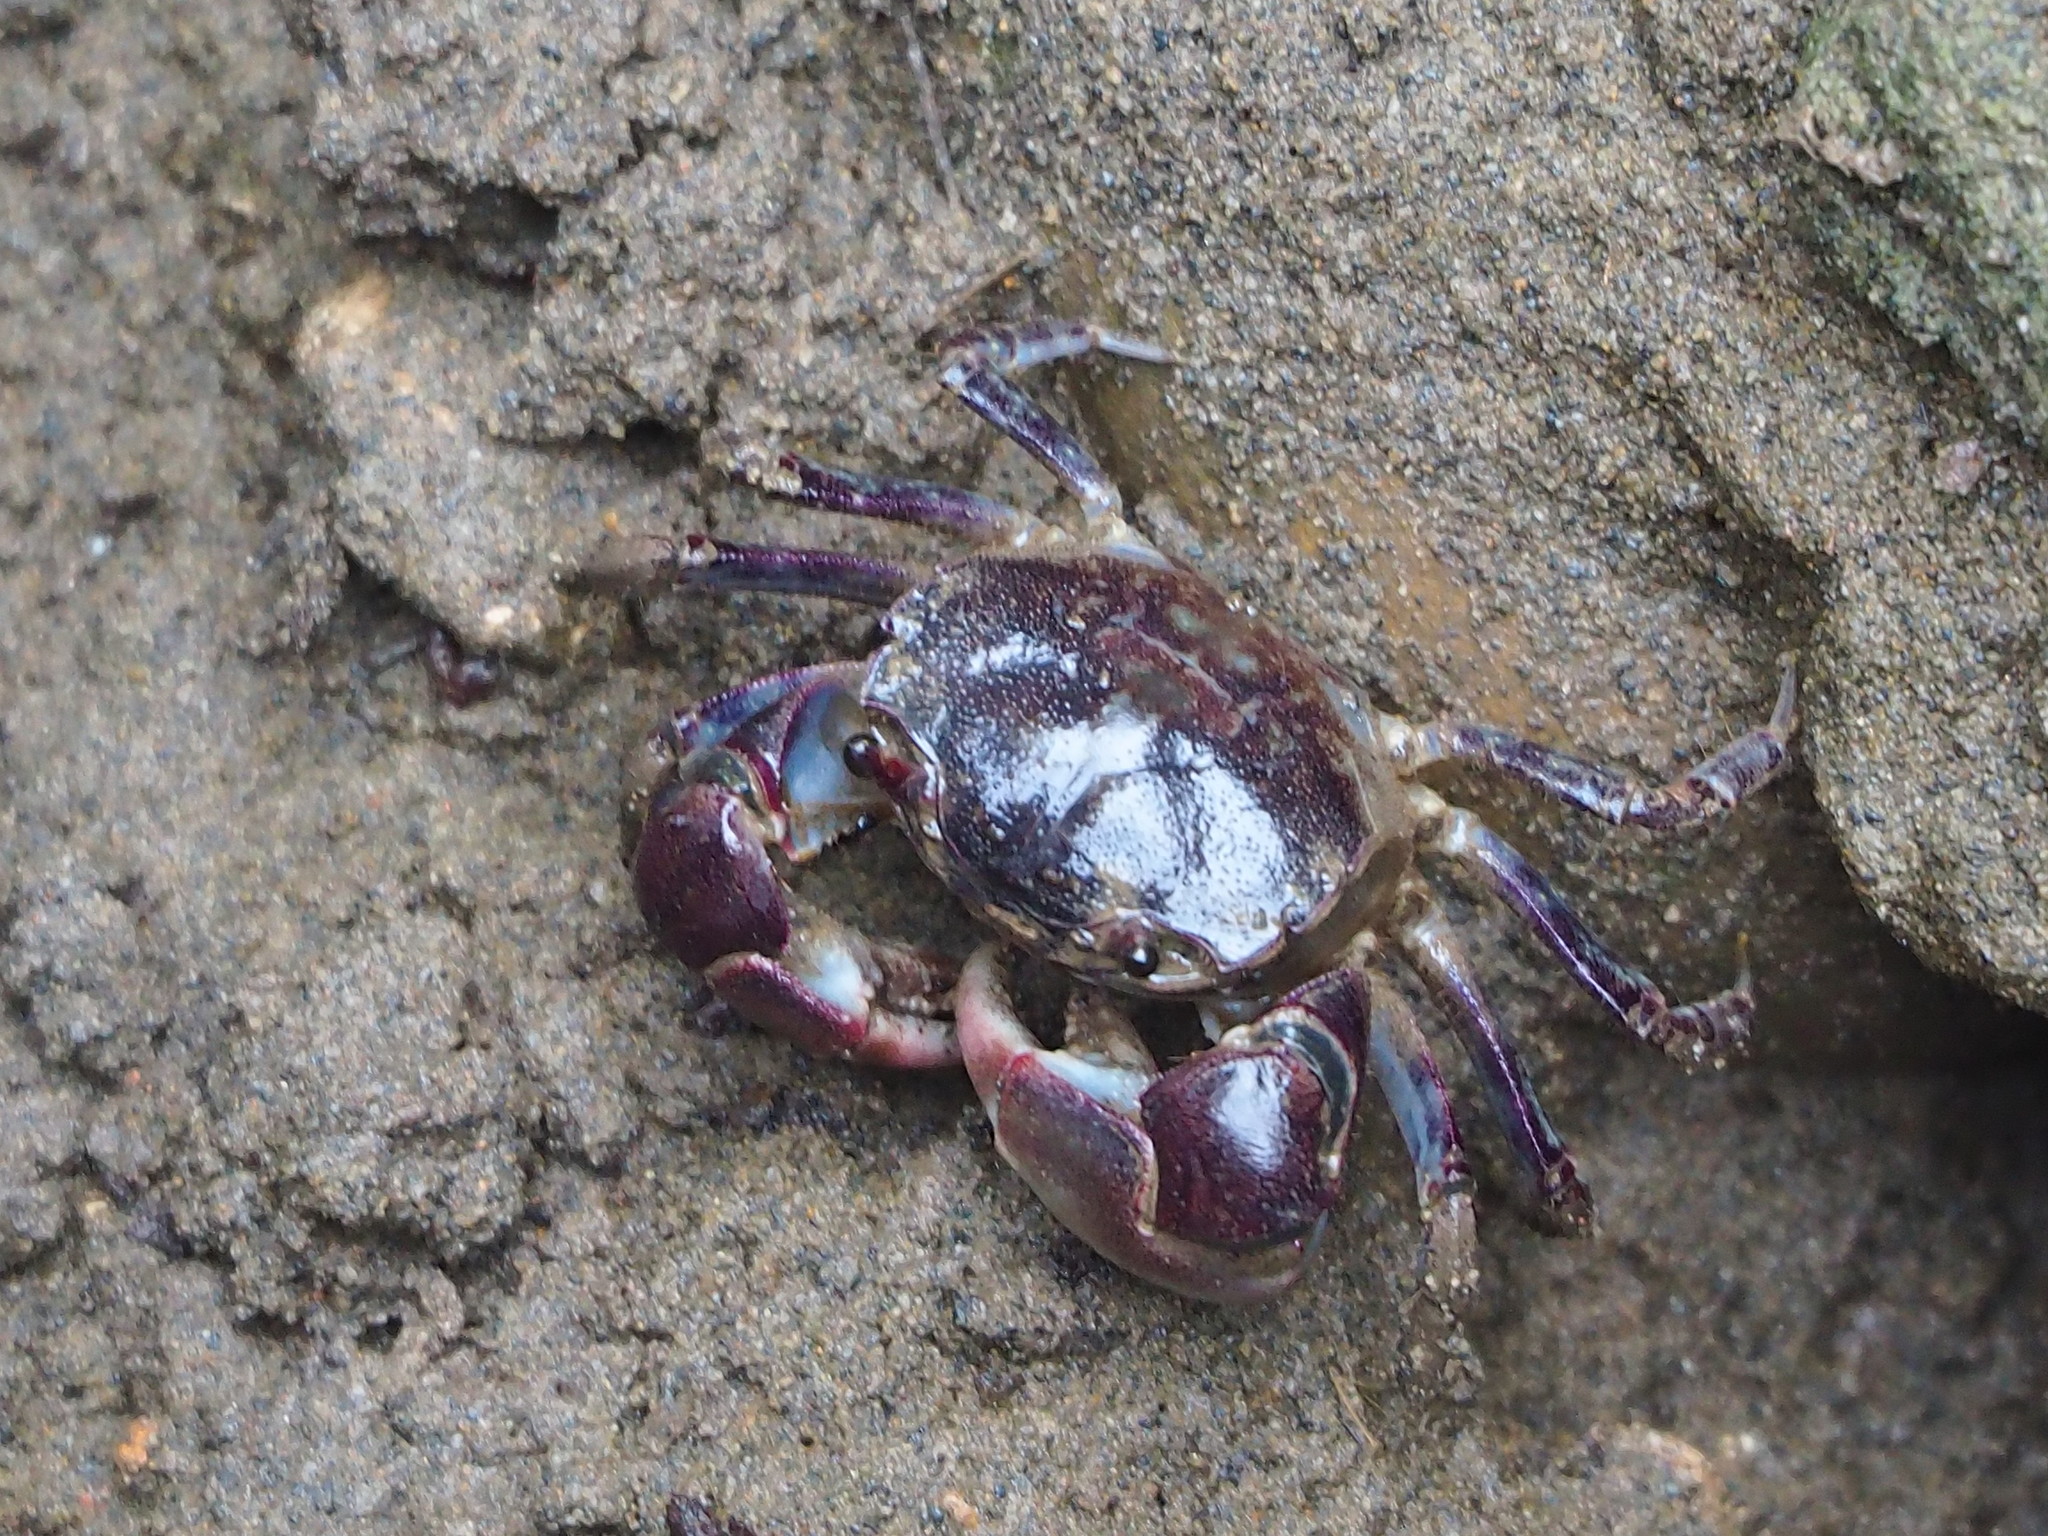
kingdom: Animalia
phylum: Arthropoda
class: Malacostraca
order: Decapoda
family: Varunidae
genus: Pseudohelice
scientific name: Pseudohelice subquadrata
